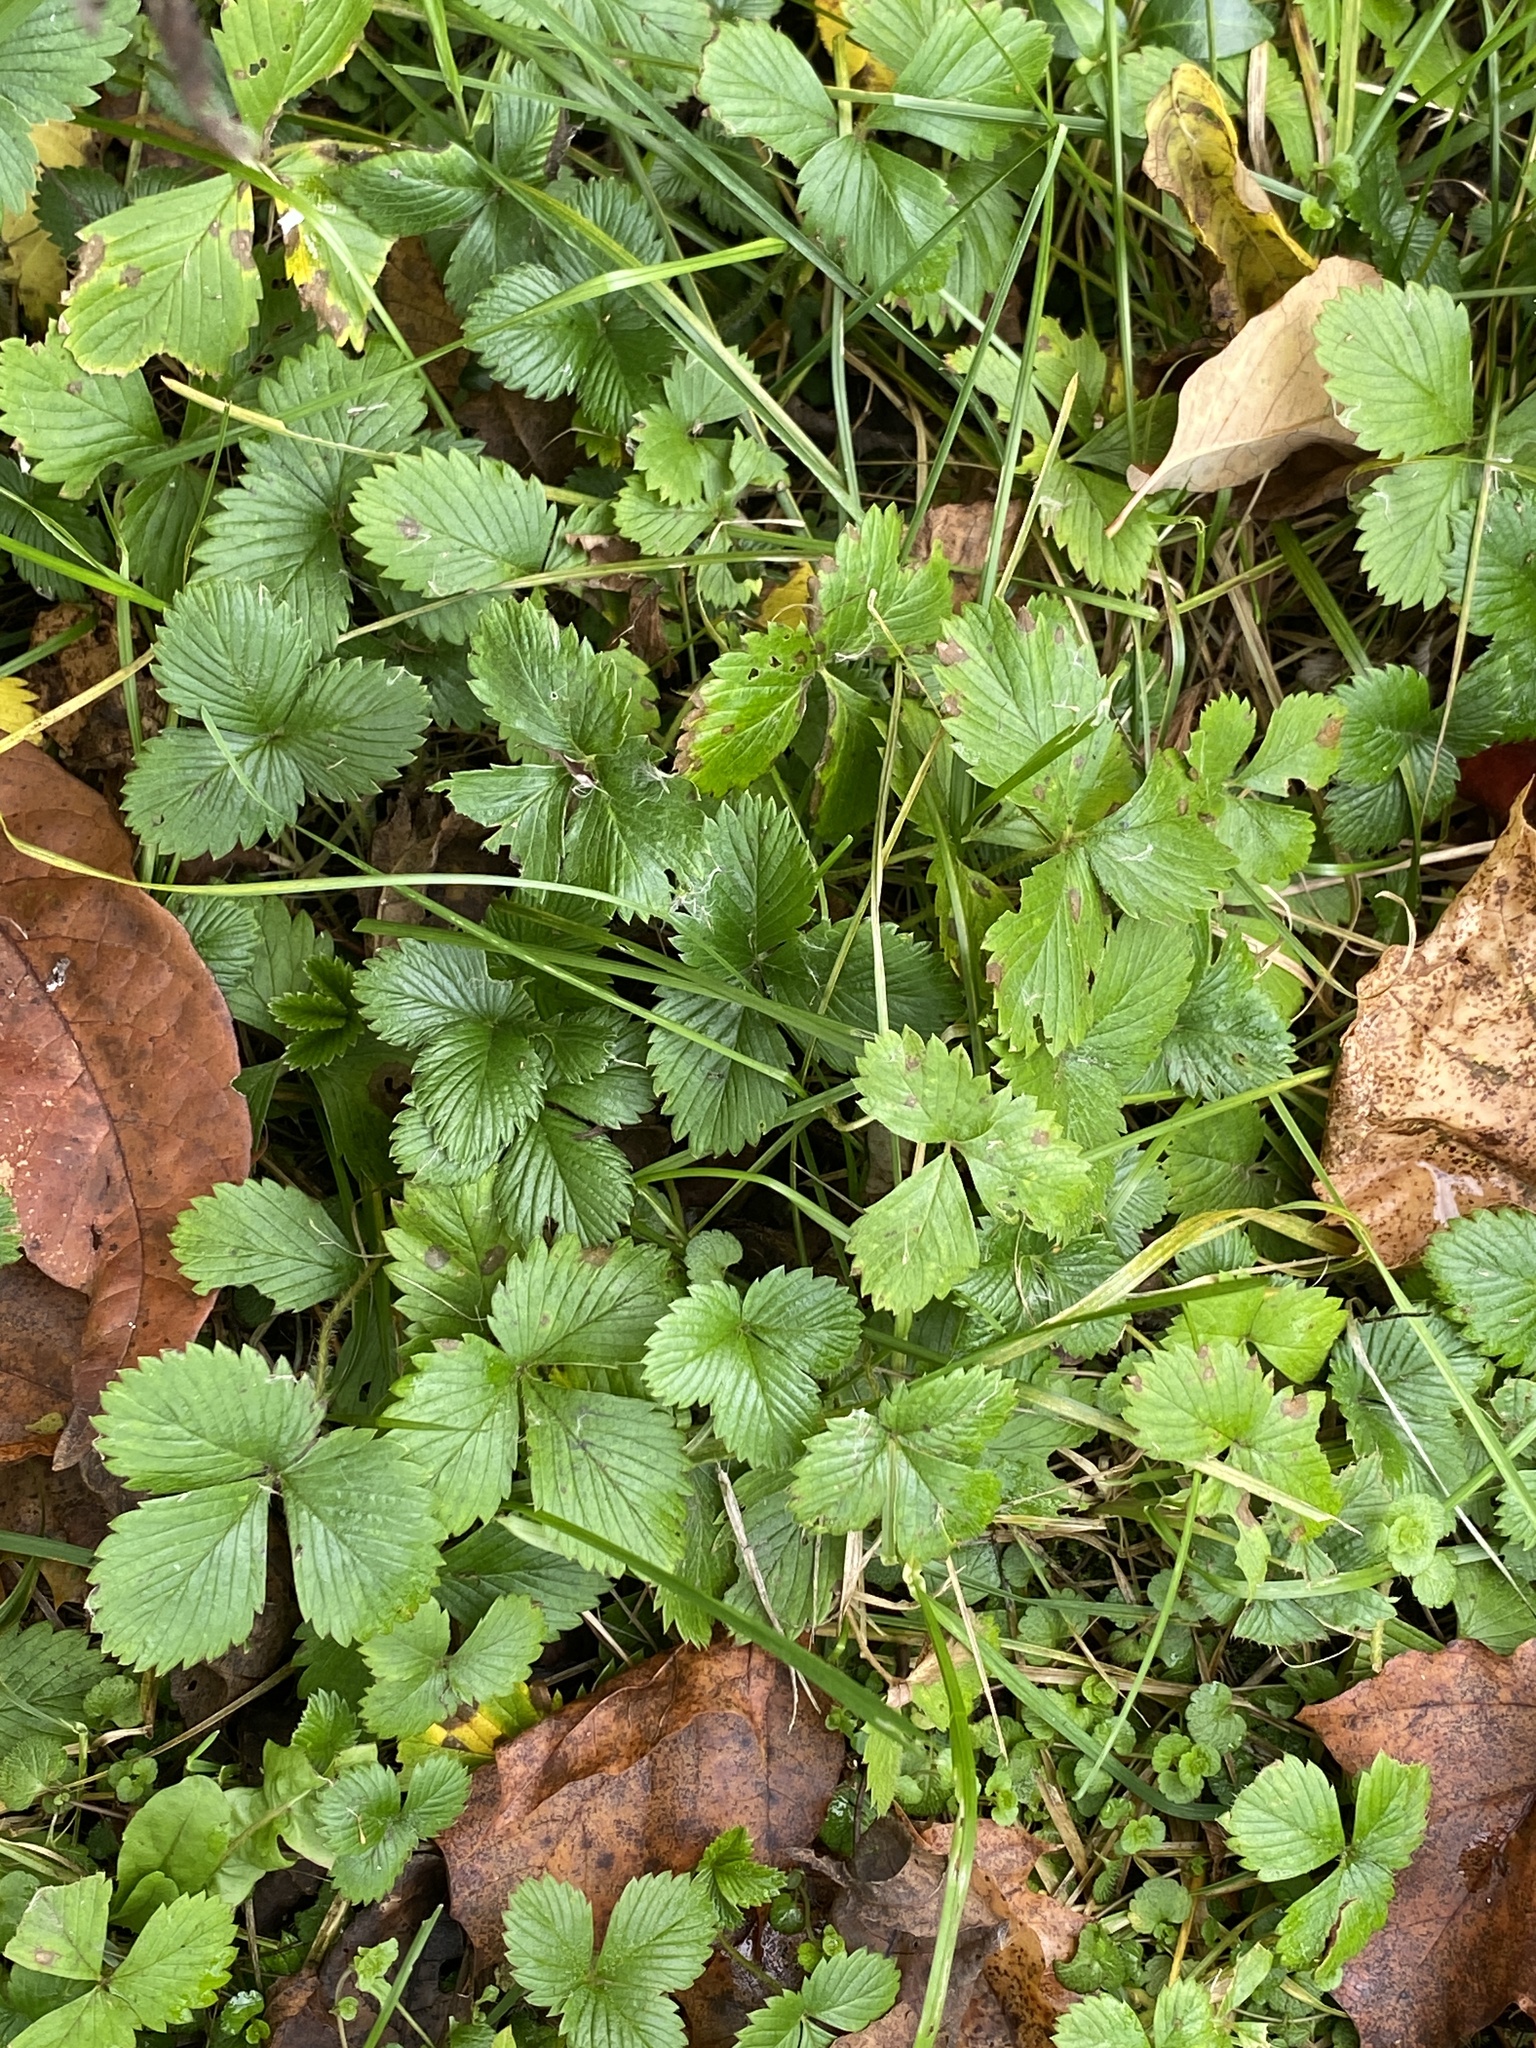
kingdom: Plantae
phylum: Tracheophyta
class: Magnoliopsida
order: Rosales
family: Rosaceae
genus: Potentilla
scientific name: Potentilla indica
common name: Yellow-flowered strawberry
